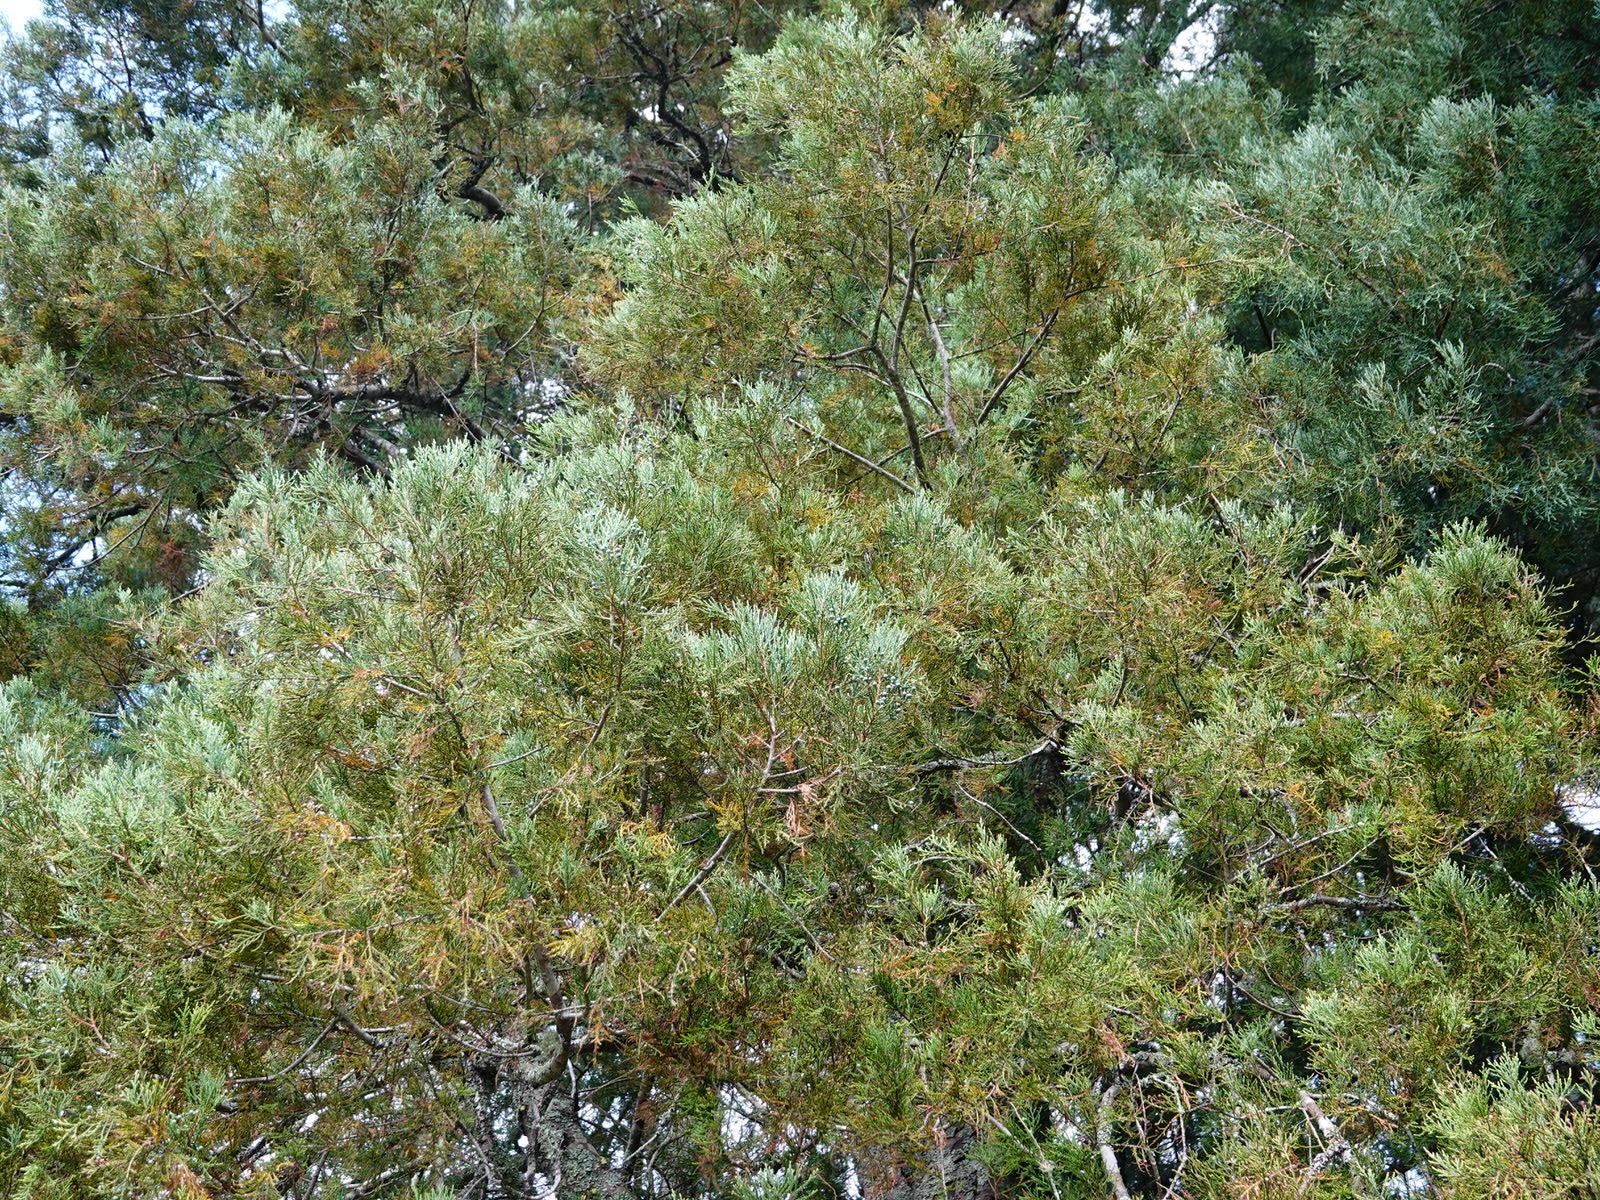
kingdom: Plantae
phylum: Tracheophyta
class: Pinopsida
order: Pinales
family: Podocarpaceae
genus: Dacrycarpus
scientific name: Dacrycarpus dacrydioides
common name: White pine
